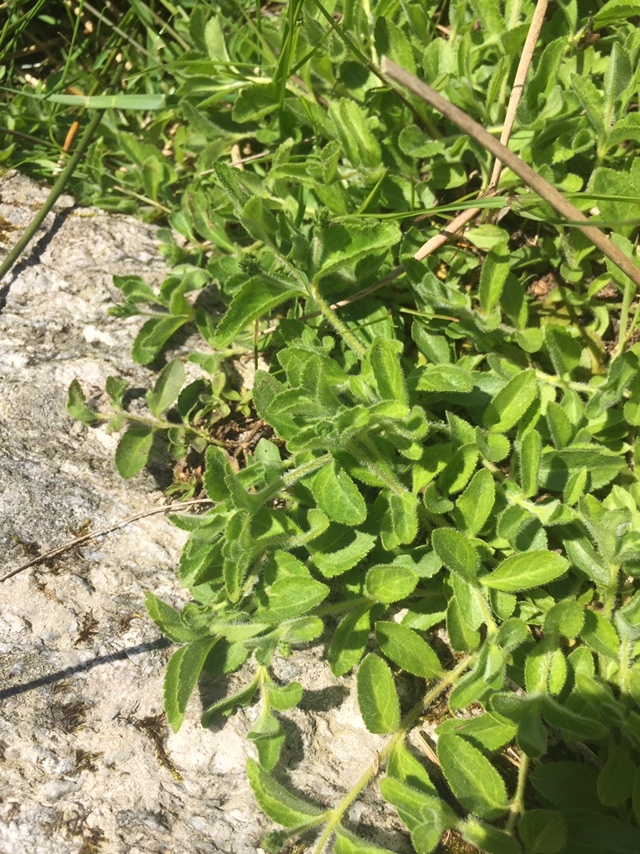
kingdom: Plantae
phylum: Tracheophyta
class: Magnoliopsida
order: Lamiales
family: Plantaginaceae
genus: Veronica
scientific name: Veronica officinalis
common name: Common speedwell
